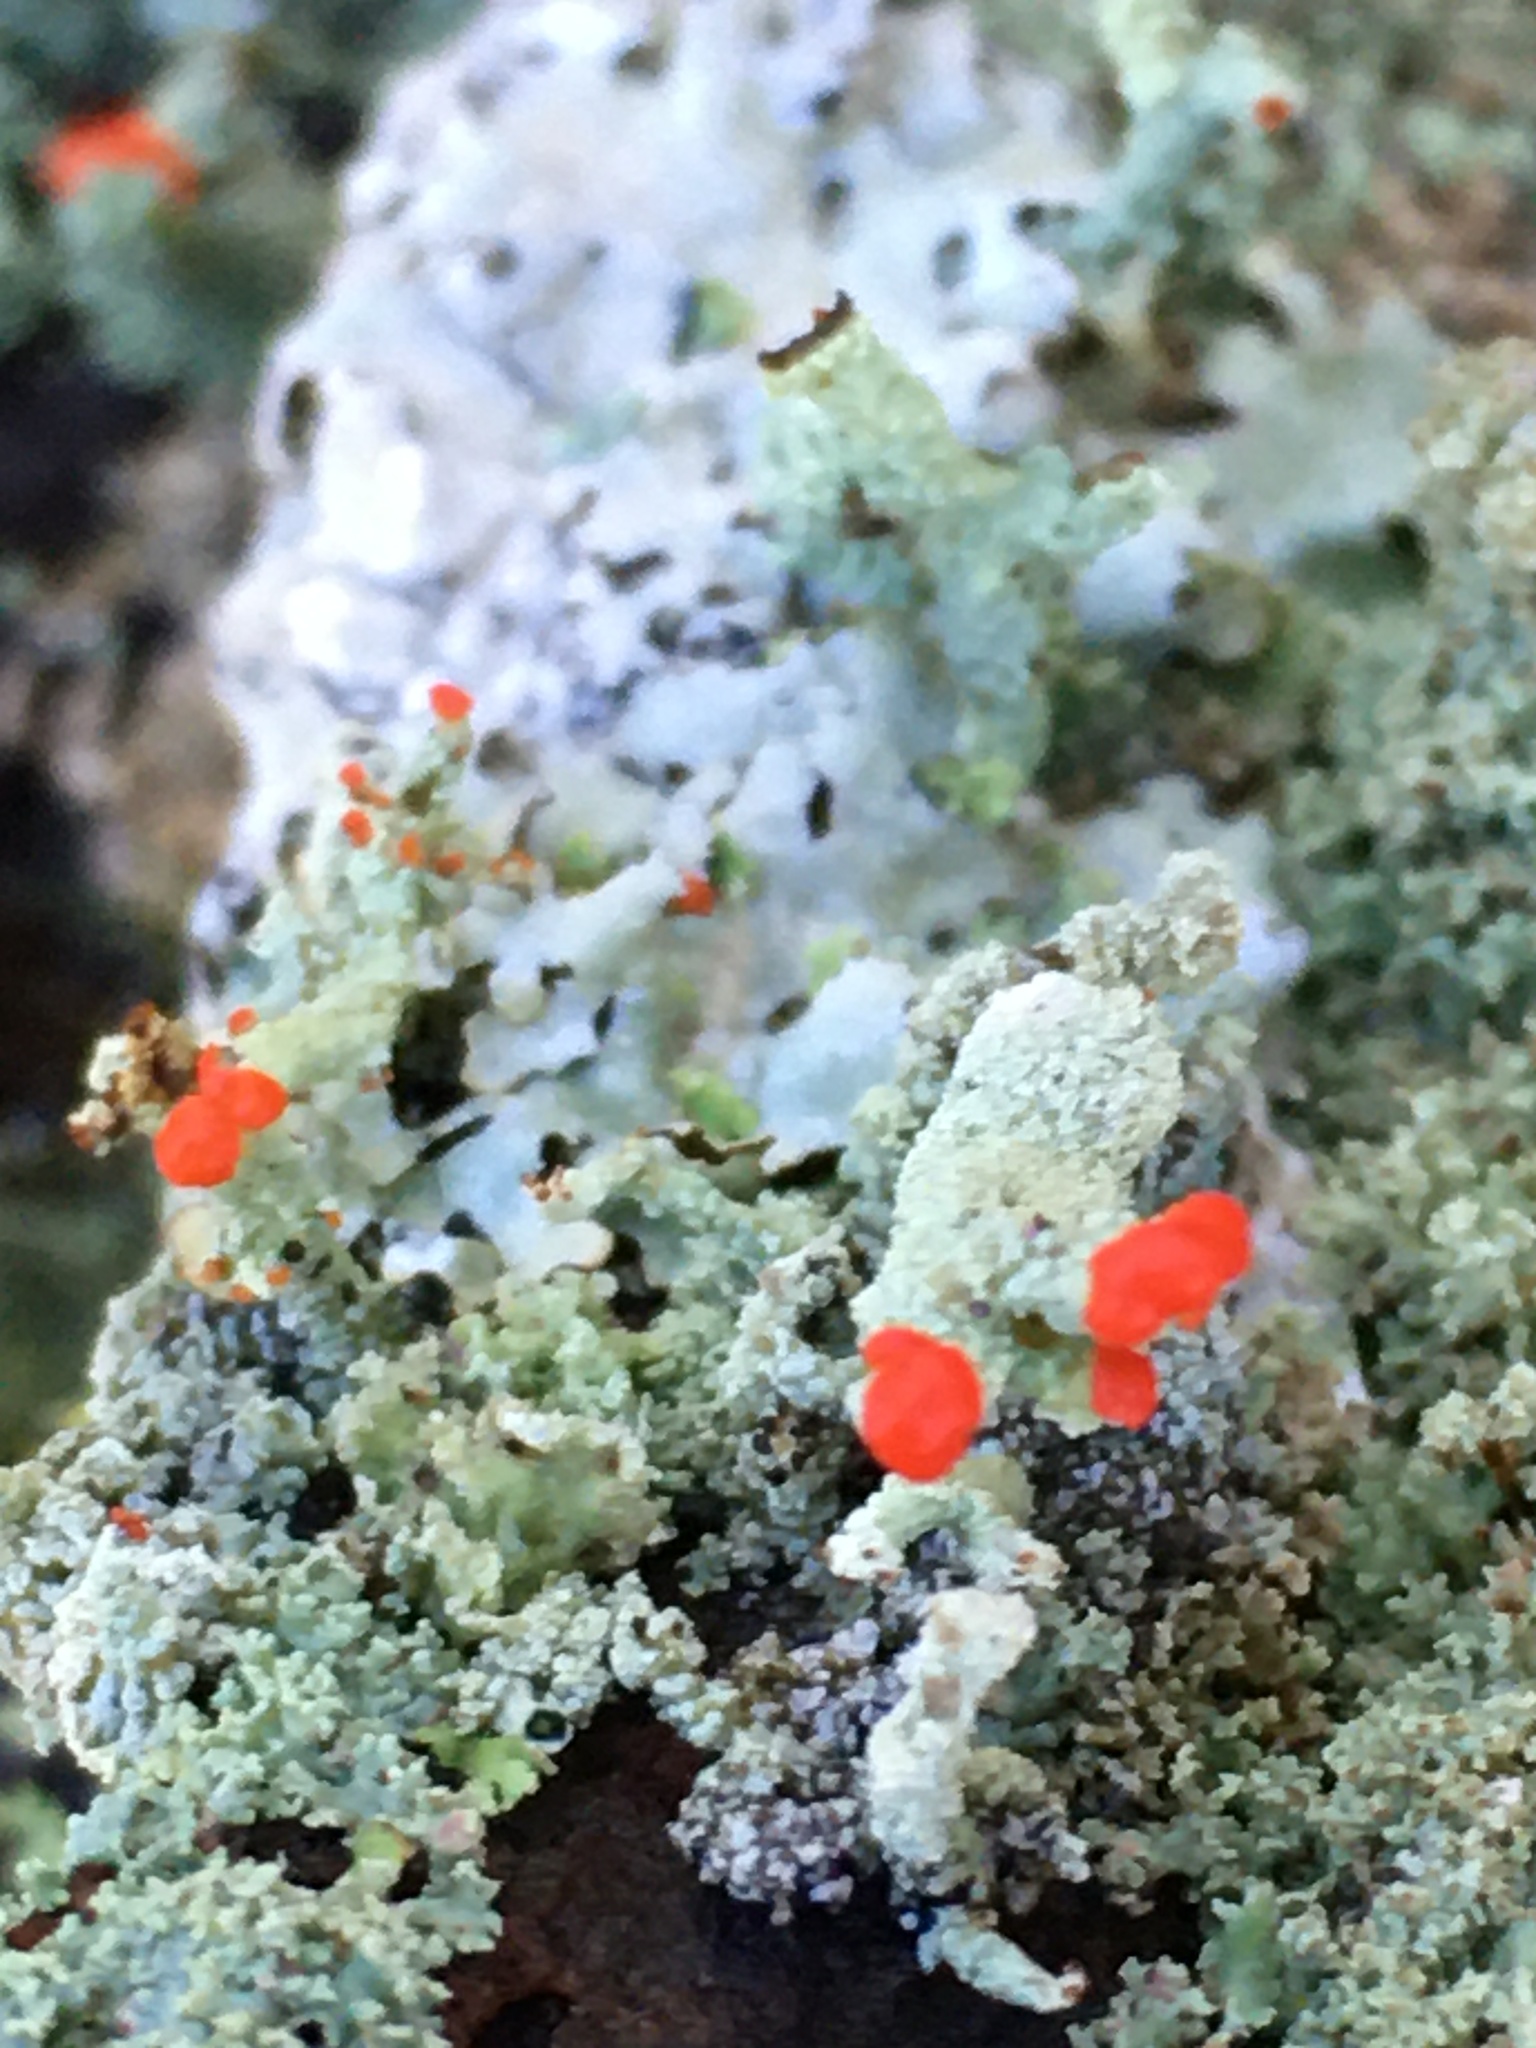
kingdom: Fungi
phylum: Ascomycota
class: Lecanoromycetes
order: Lecanorales
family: Cladoniaceae
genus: Cladonia
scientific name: Cladonia cristatella
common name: British soldier lichen
